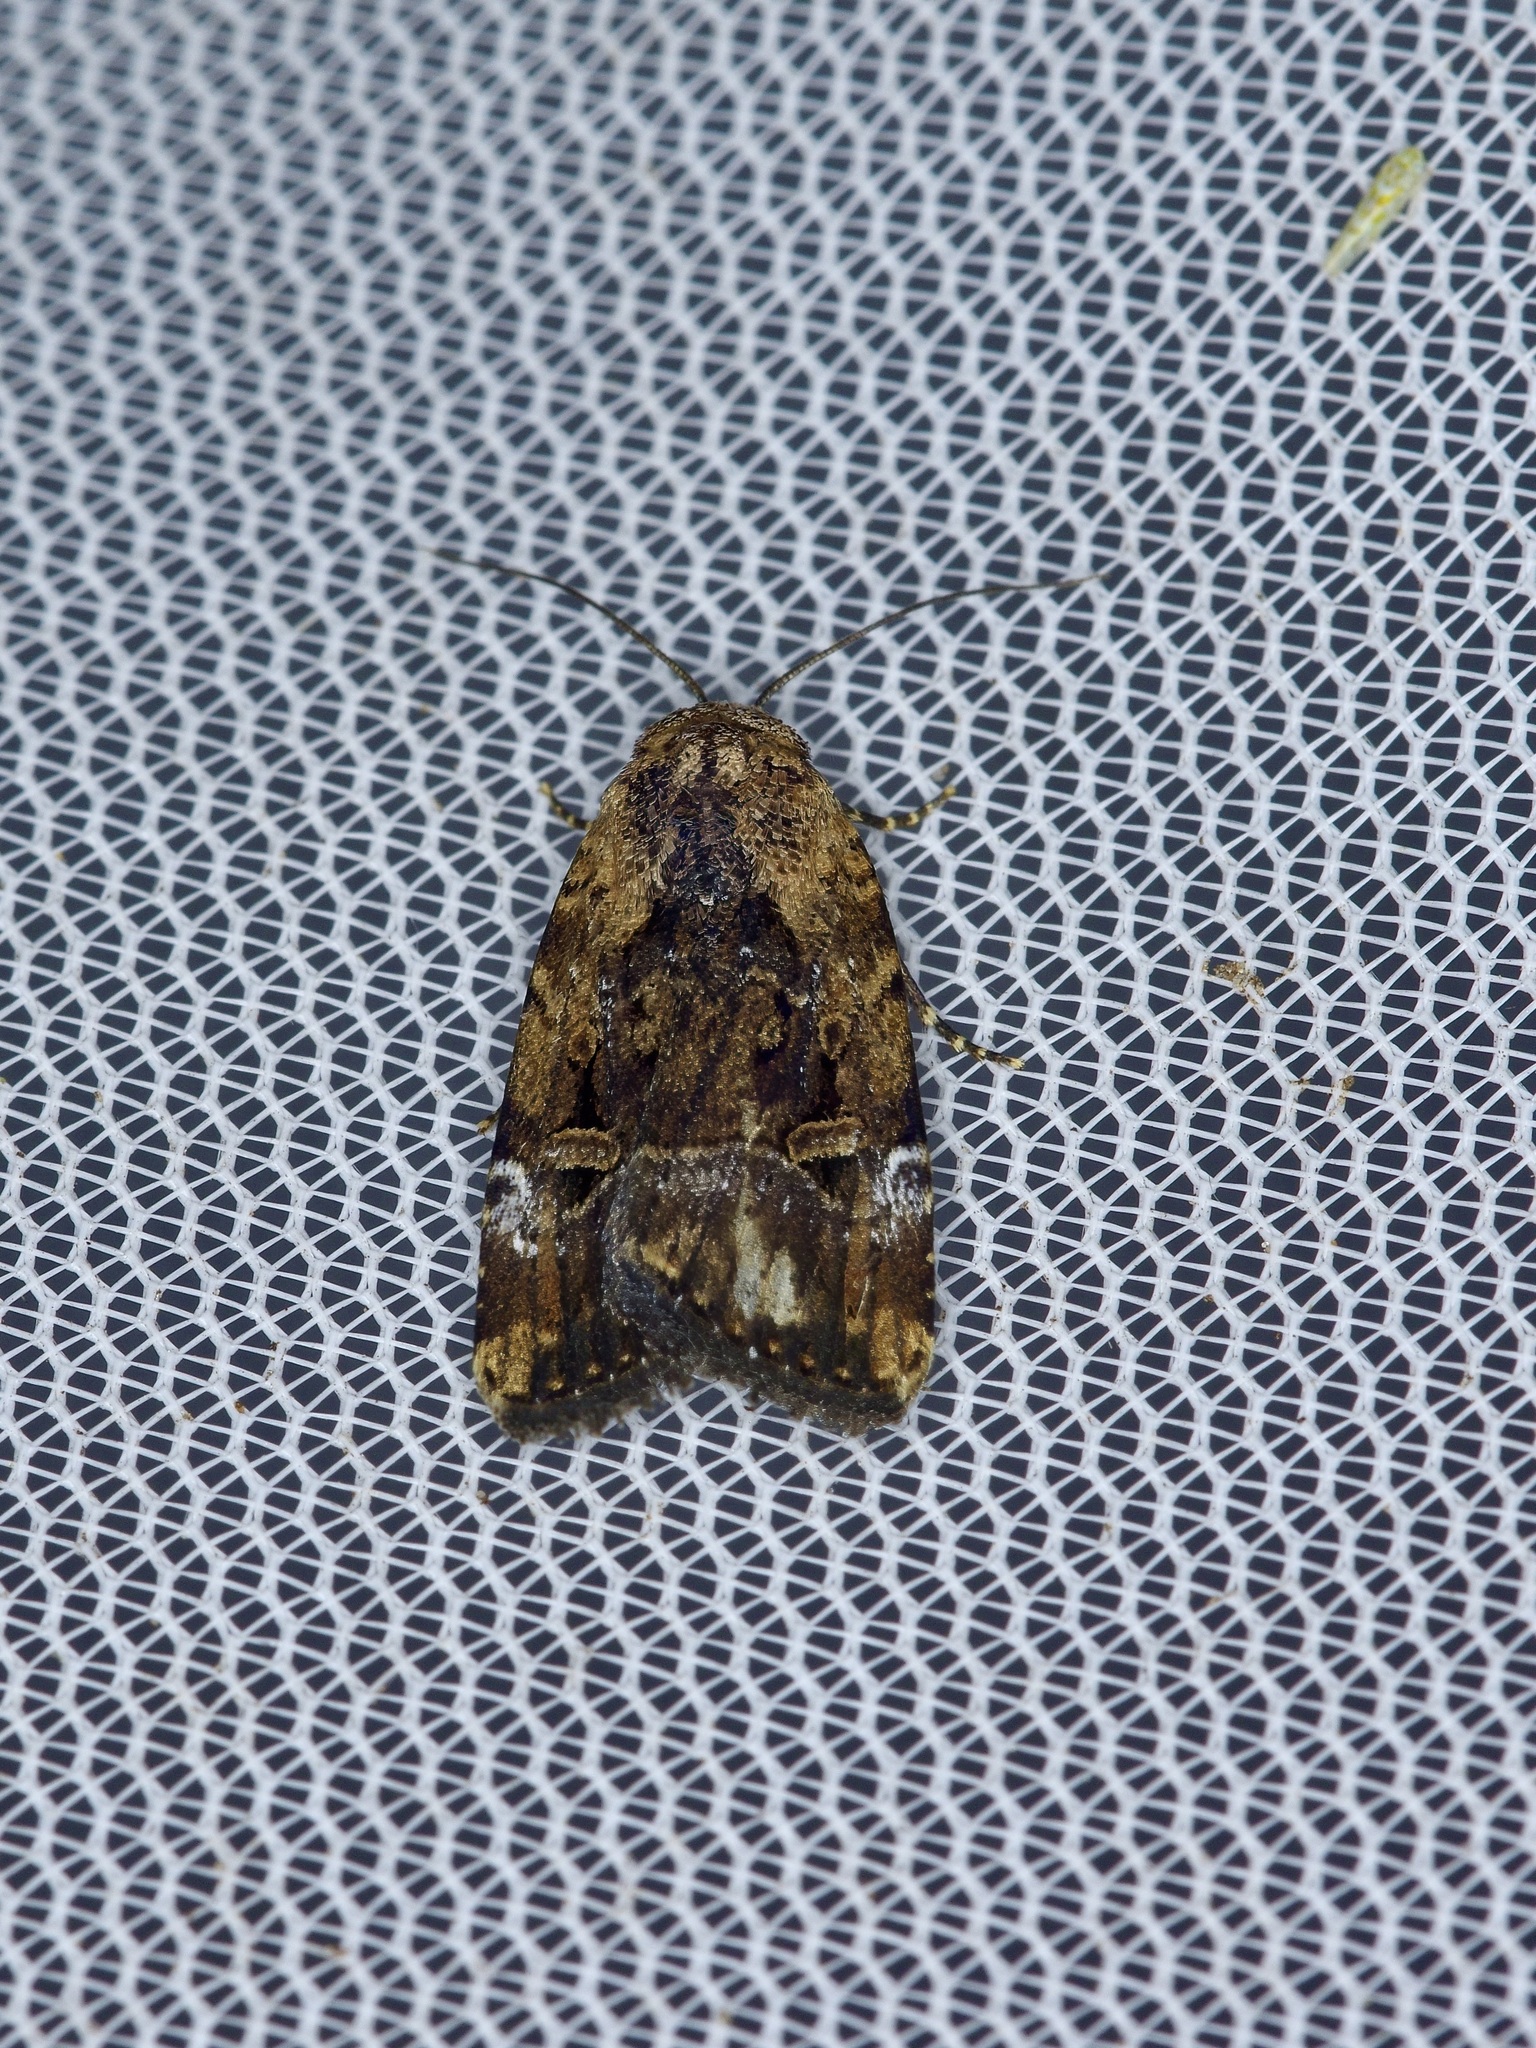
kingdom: Animalia
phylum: Arthropoda
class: Insecta
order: Lepidoptera
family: Noctuidae
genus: Elaphria
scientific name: Elaphria chalcedonia
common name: Chalcedony midget
